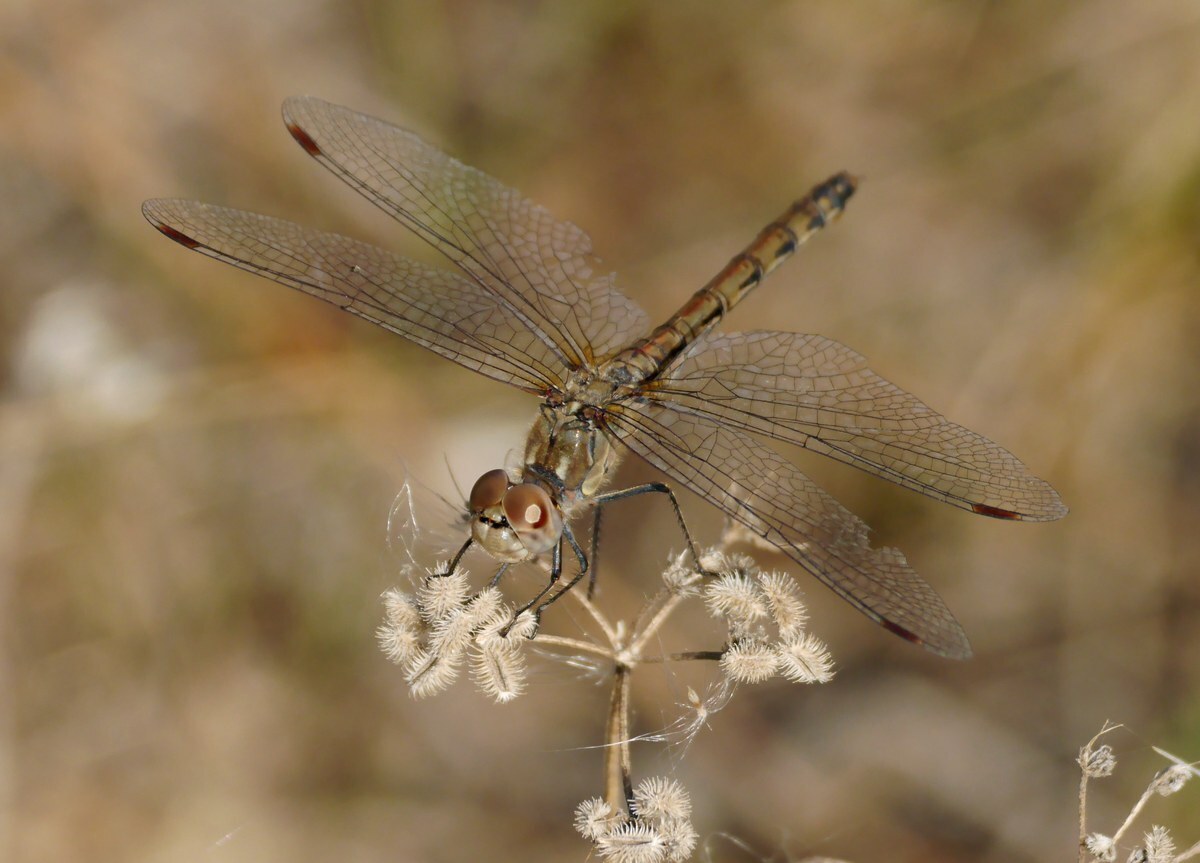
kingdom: Animalia
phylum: Arthropoda
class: Insecta
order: Odonata
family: Libellulidae
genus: Sympetrum
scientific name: Sympetrum striolatum
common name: Common darter
